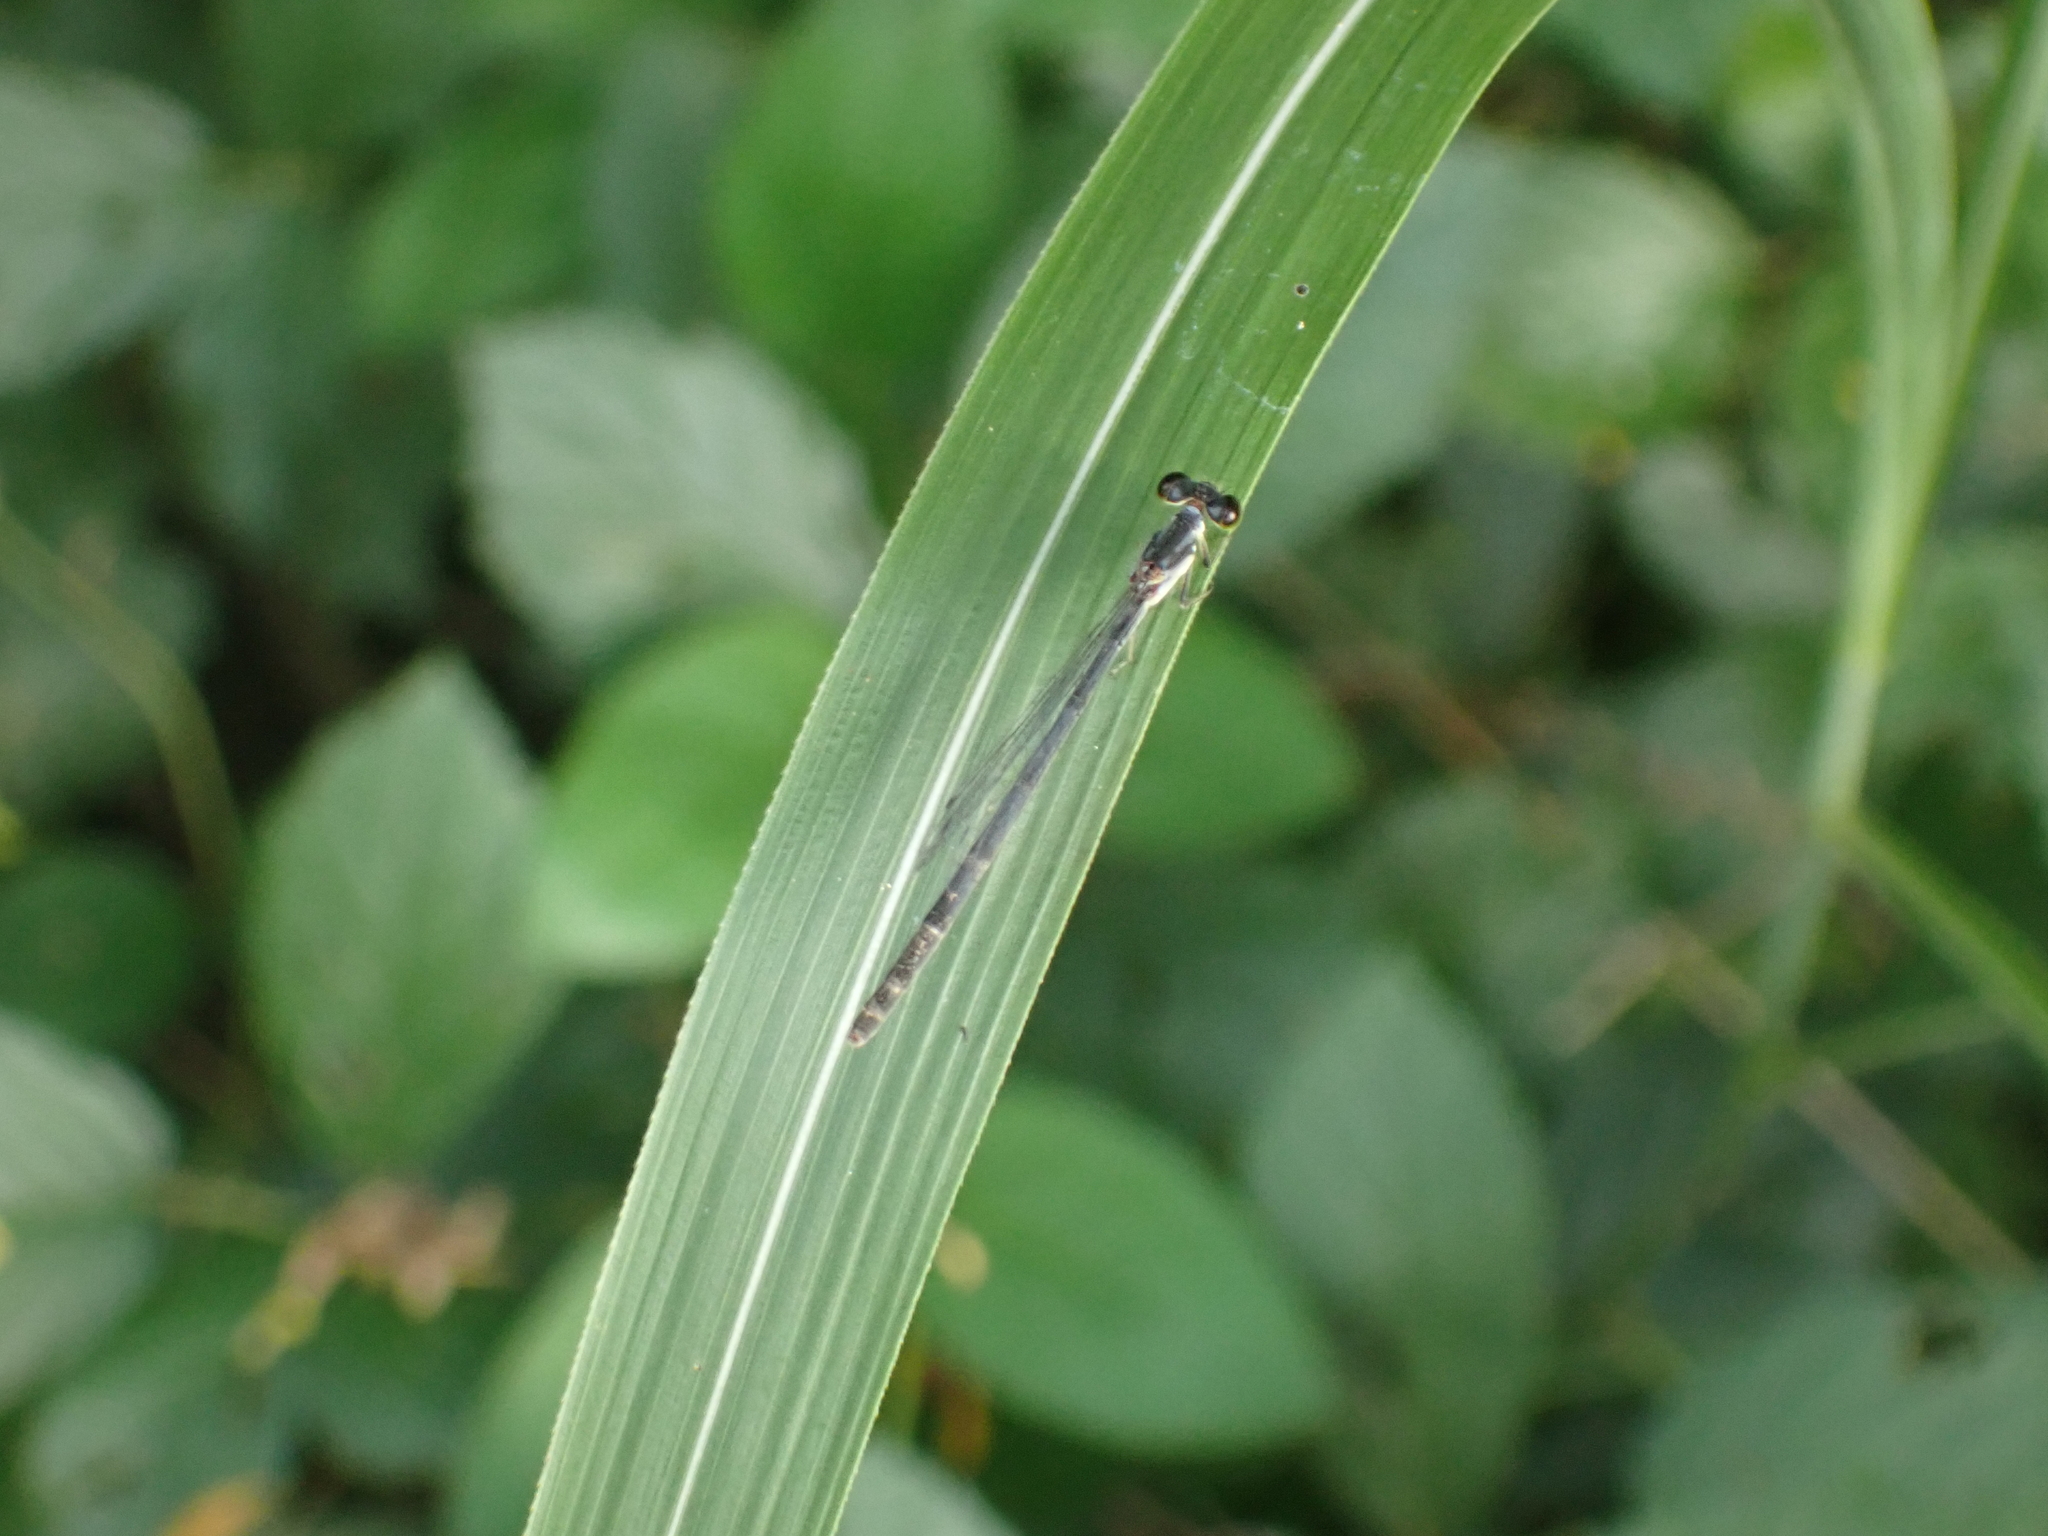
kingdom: Animalia
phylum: Arthropoda
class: Insecta
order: Odonata
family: Coenagrionidae
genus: Ischnura
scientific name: Ischnura posita
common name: Fragile forktail
